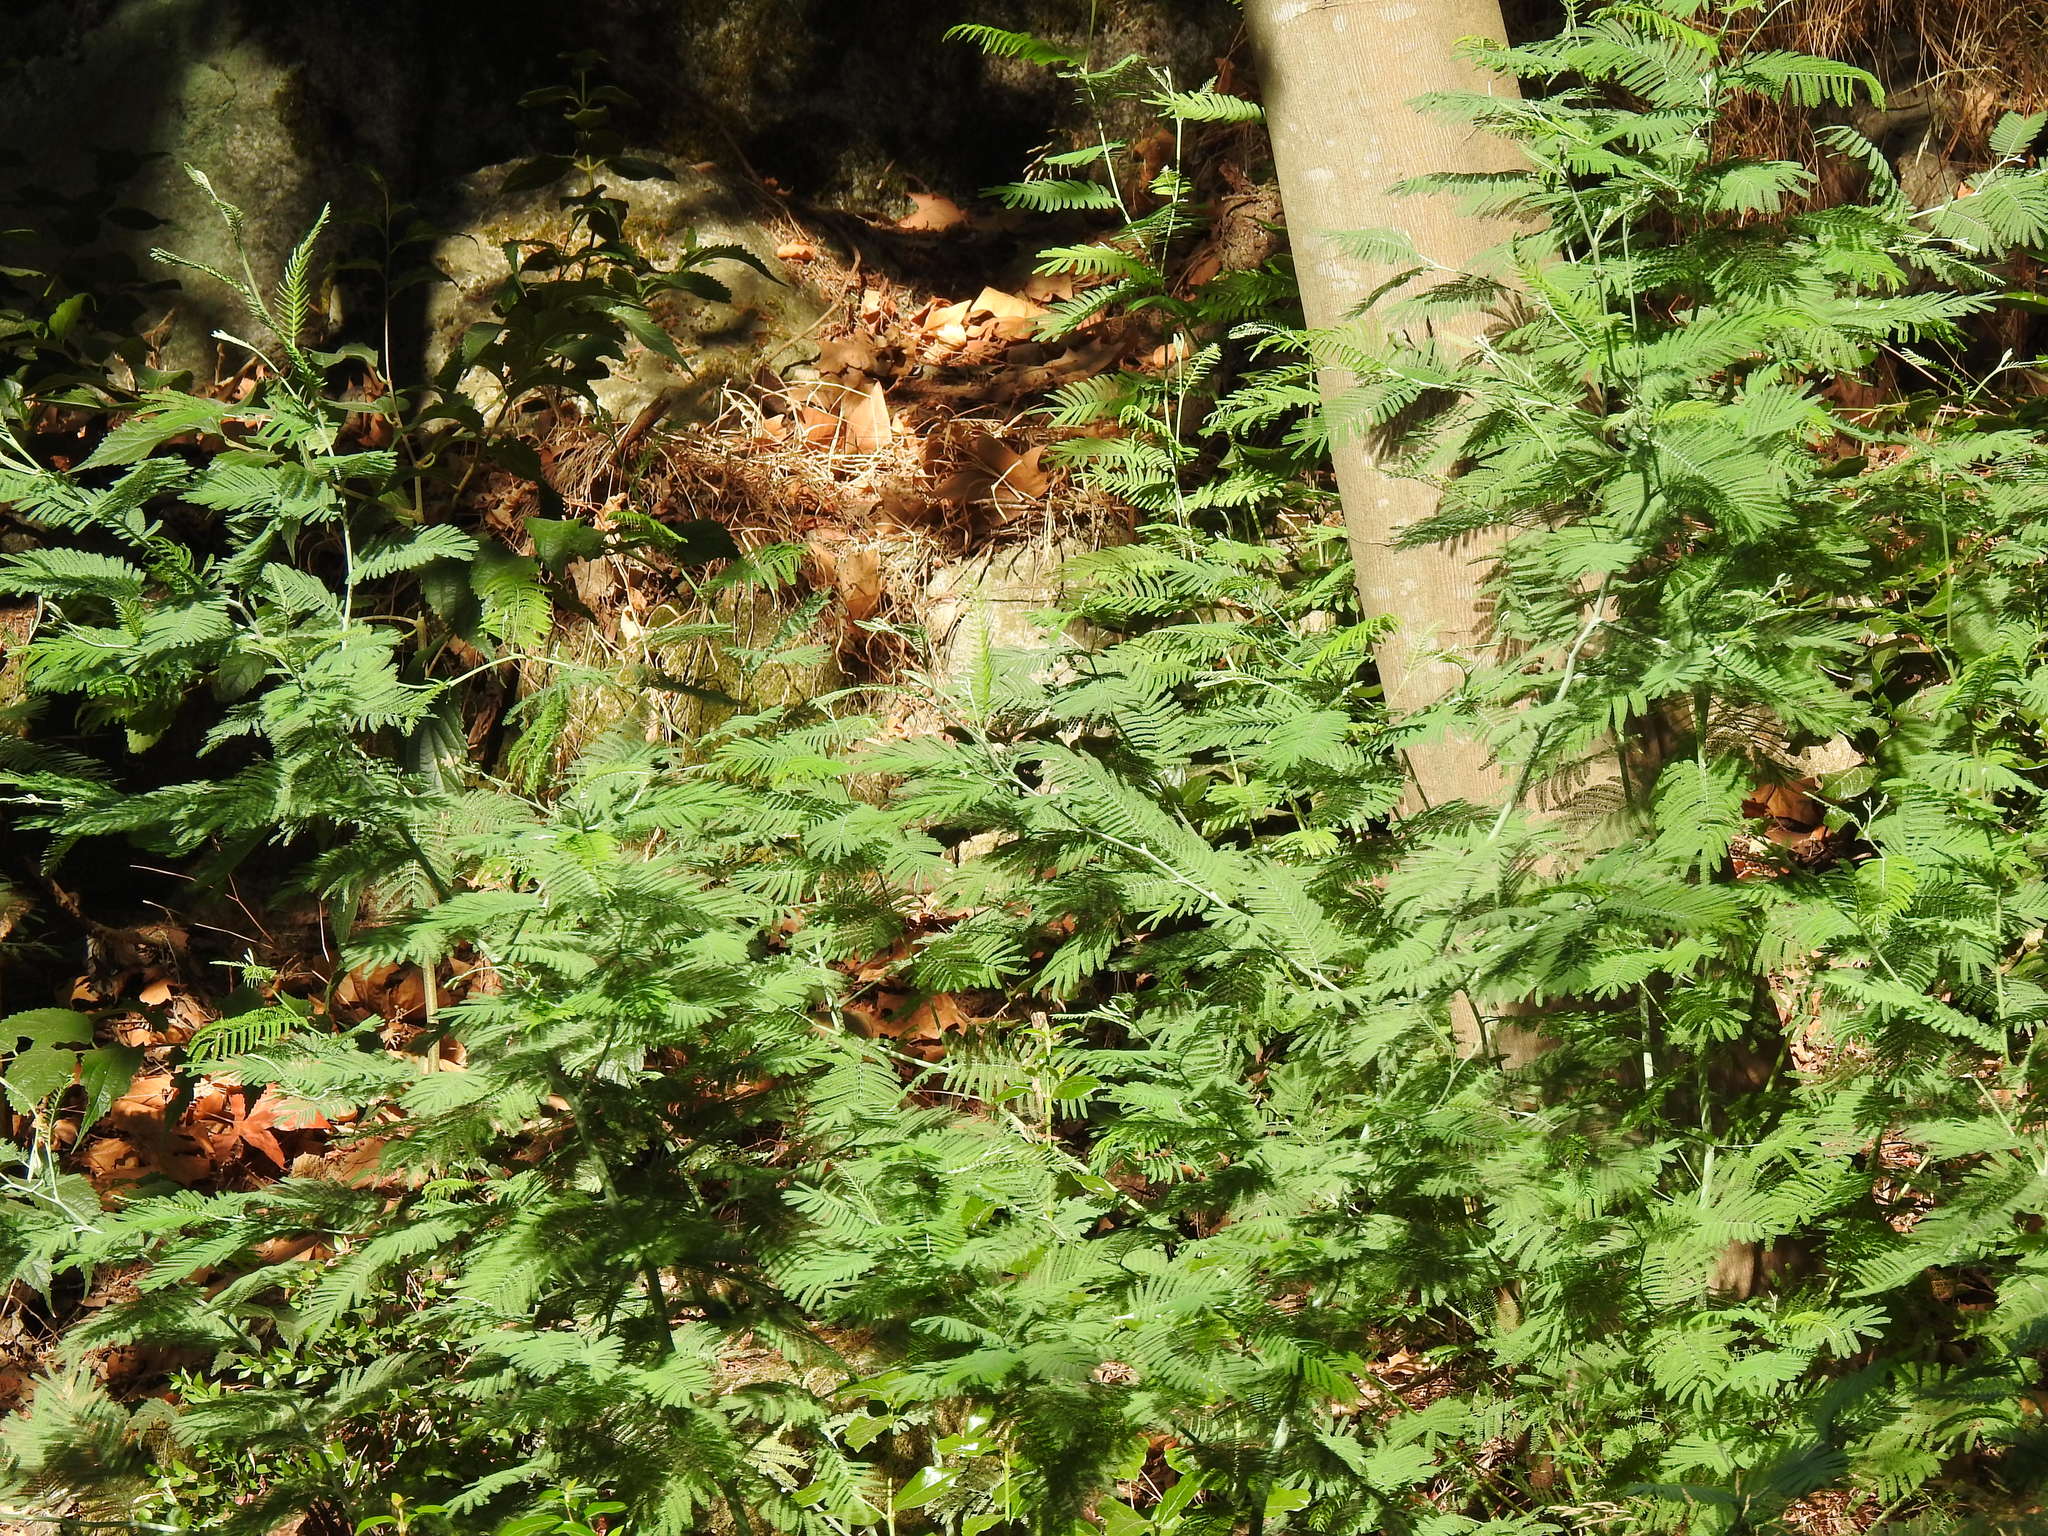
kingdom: Plantae
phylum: Tracheophyta
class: Magnoliopsida
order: Fabales
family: Fabaceae
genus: Acacia
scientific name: Acacia dealbata
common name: Silver wattle
